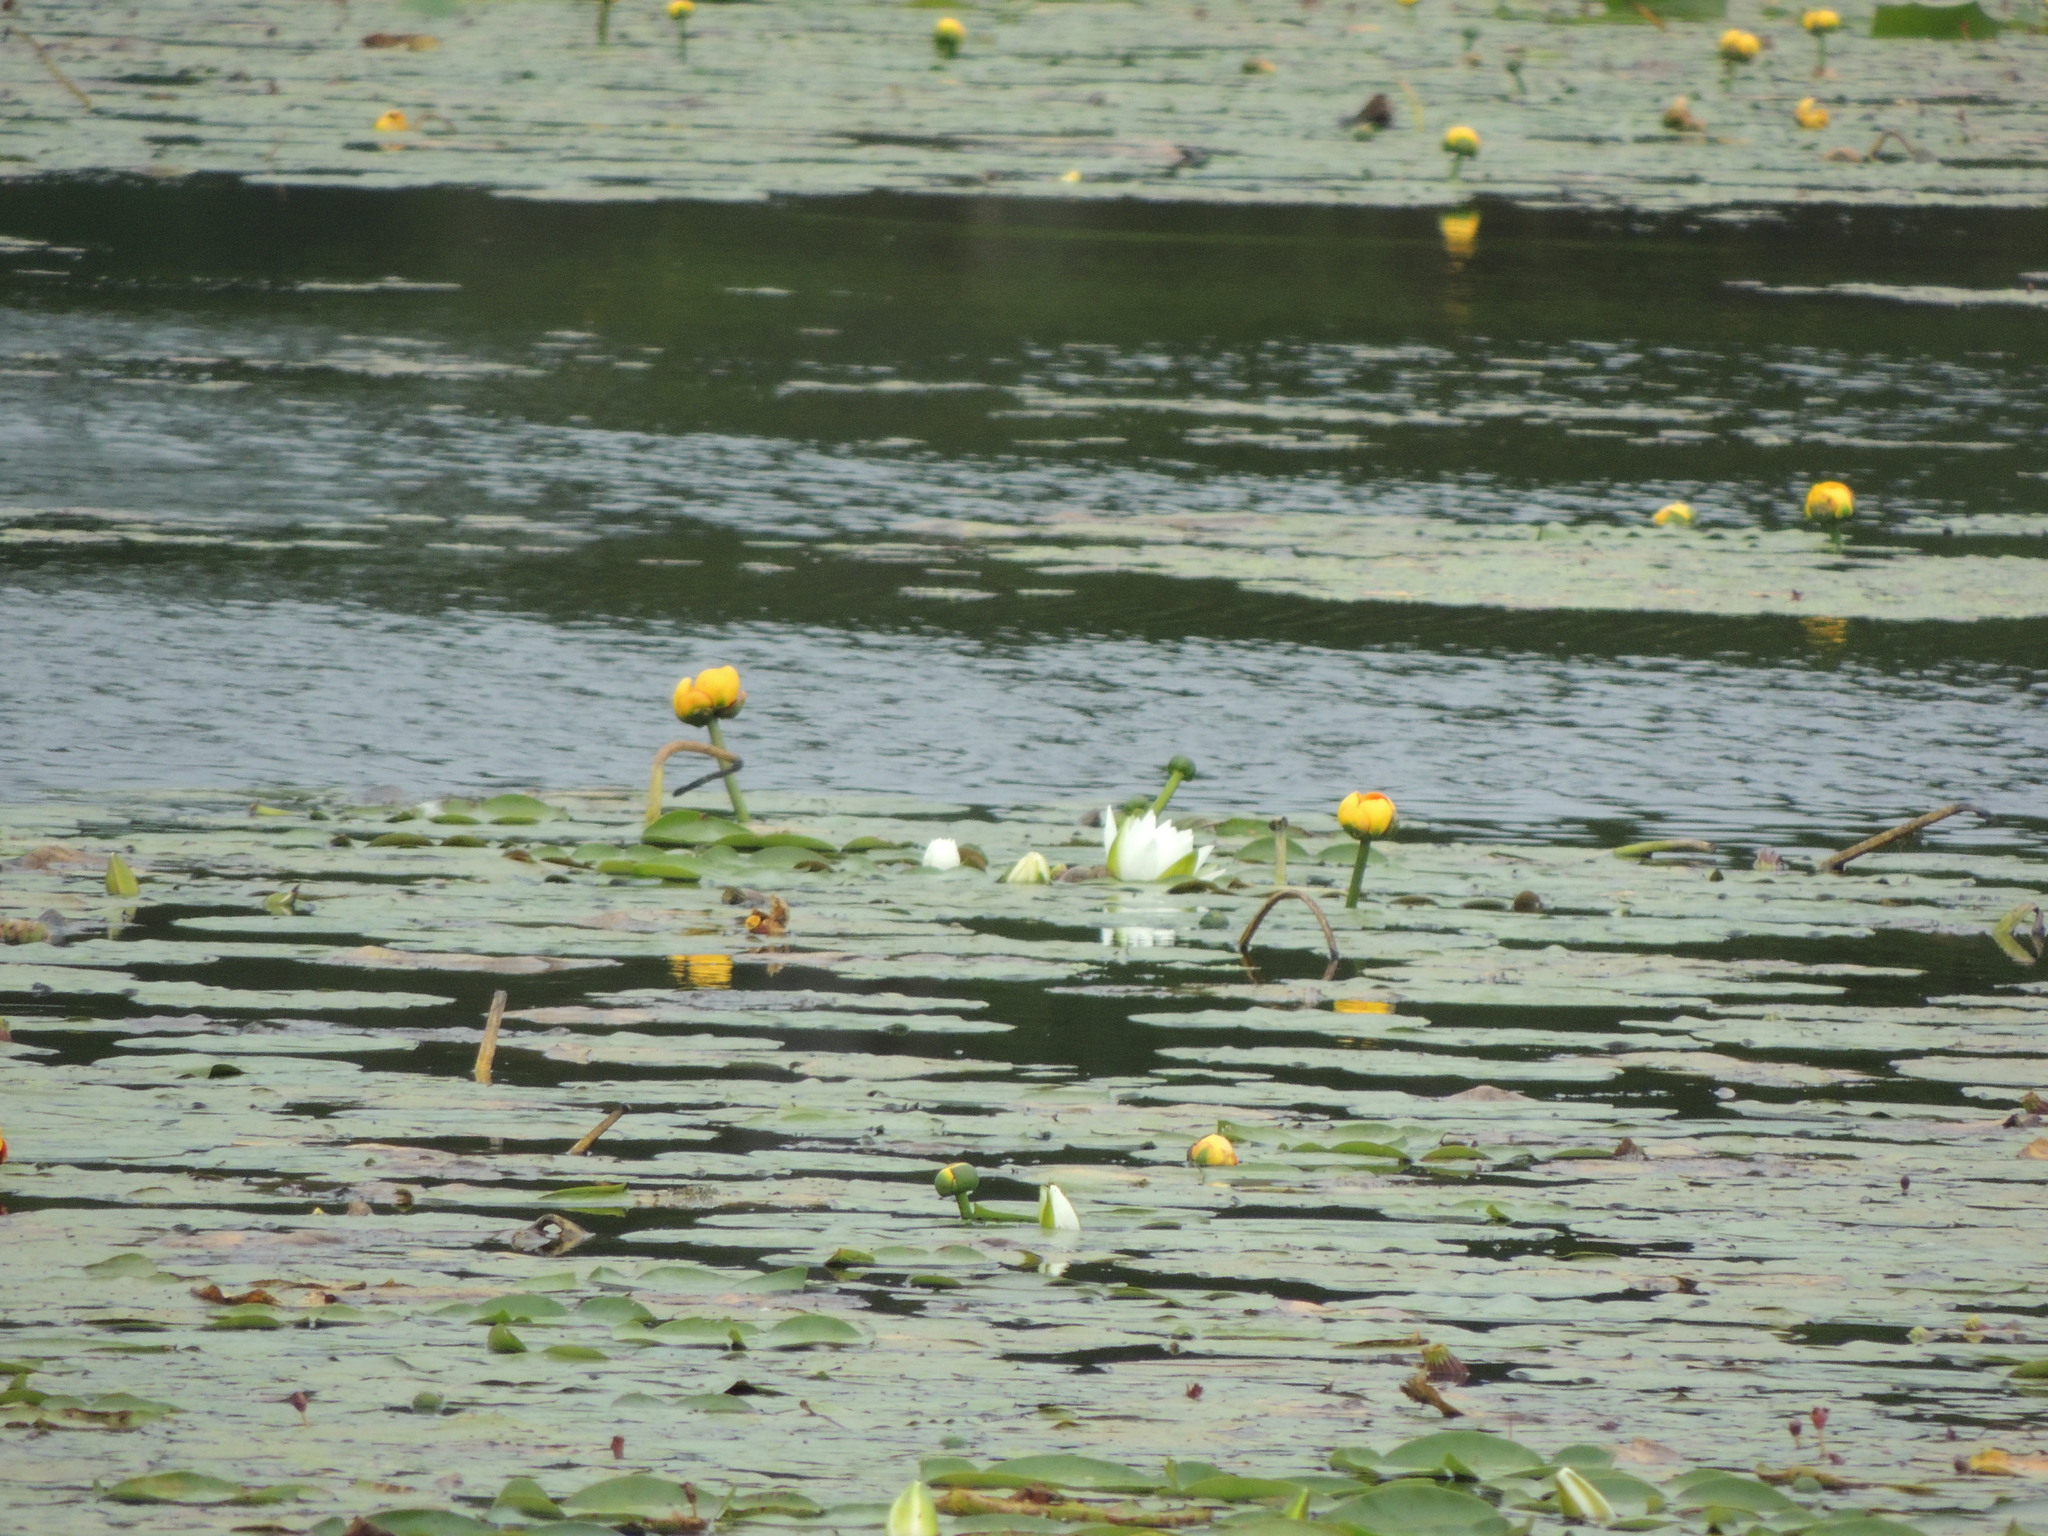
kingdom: Plantae
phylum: Tracheophyta
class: Magnoliopsida
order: Nymphaeales
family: Nymphaeaceae
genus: Nymphaea
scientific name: Nymphaea odorata
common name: Fragrant water-lily
